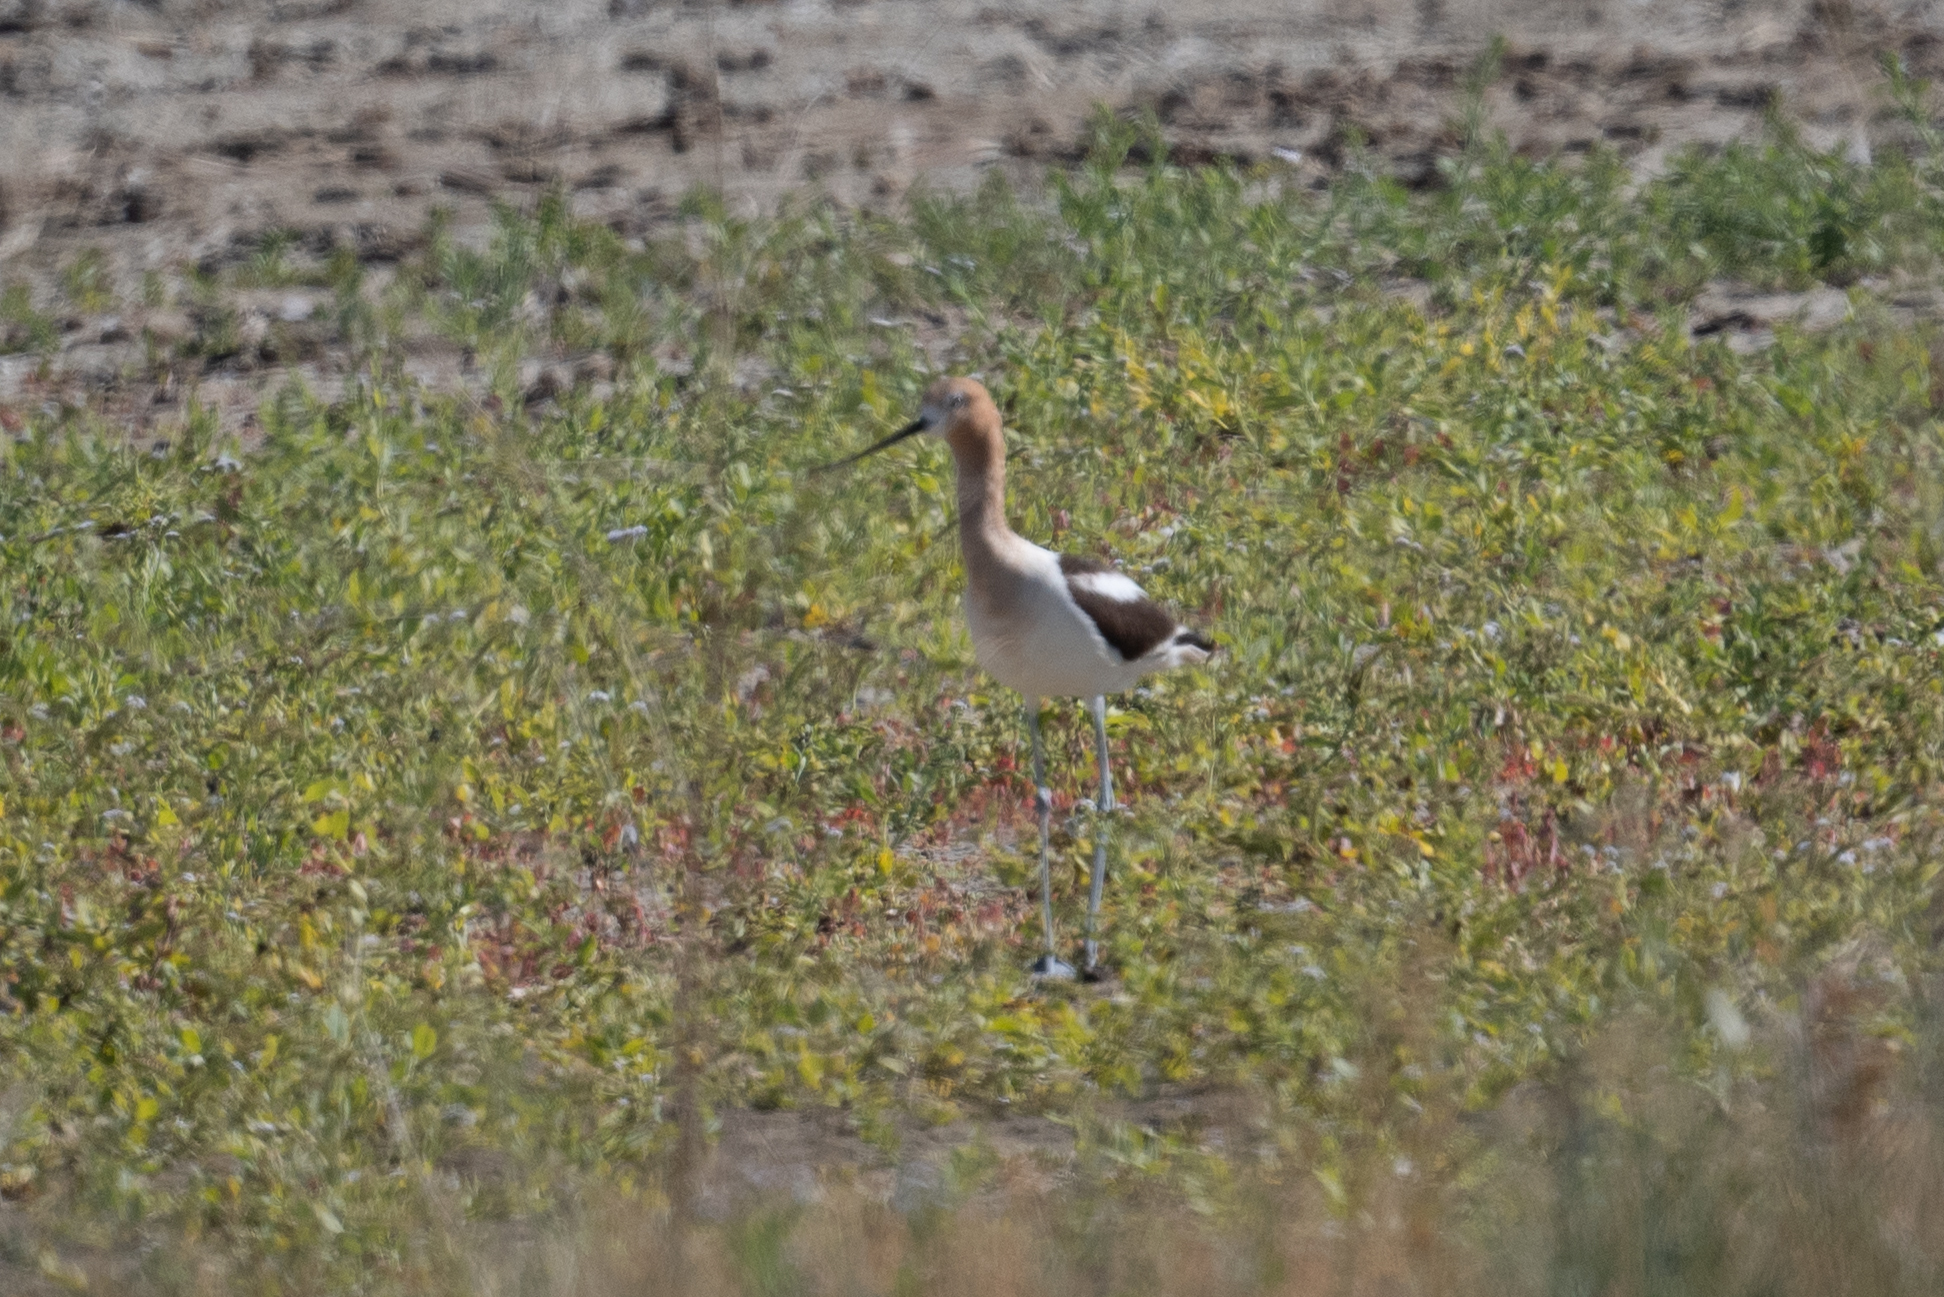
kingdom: Animalia
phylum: Chordata
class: Aves
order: Charadriiformes
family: Recurvirostridae
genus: Recurvirostra
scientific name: Recurvirostra americana
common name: American avocet
